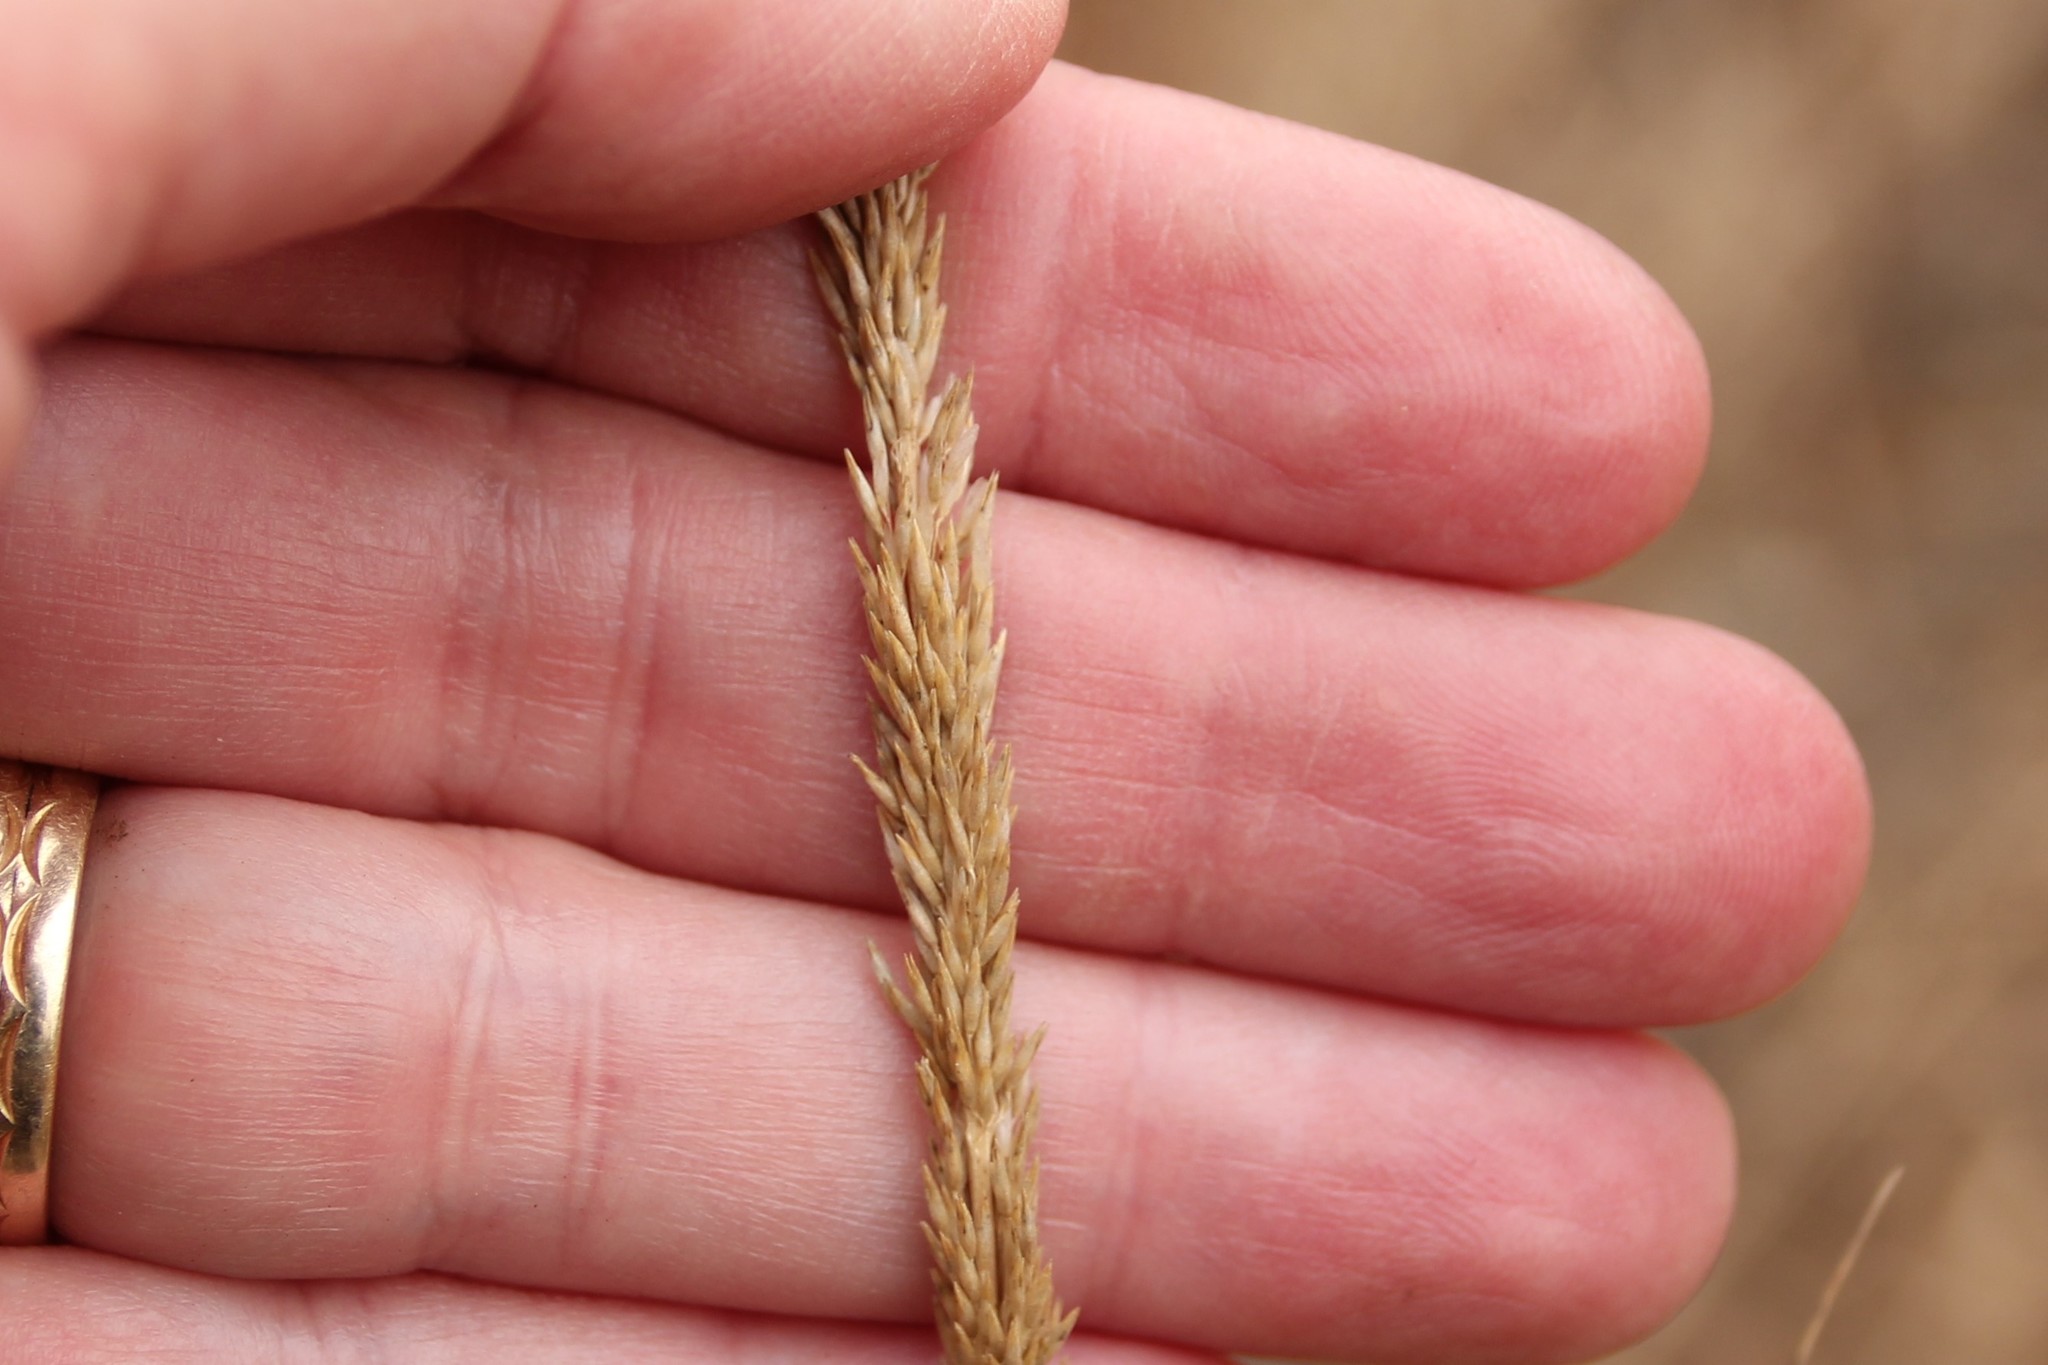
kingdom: Plantae
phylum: Tracheophyta
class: Liliopsida
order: Poales
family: Poaceae
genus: Muhlenbergia
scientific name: Muhlenbergia rigens
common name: Deer grass
